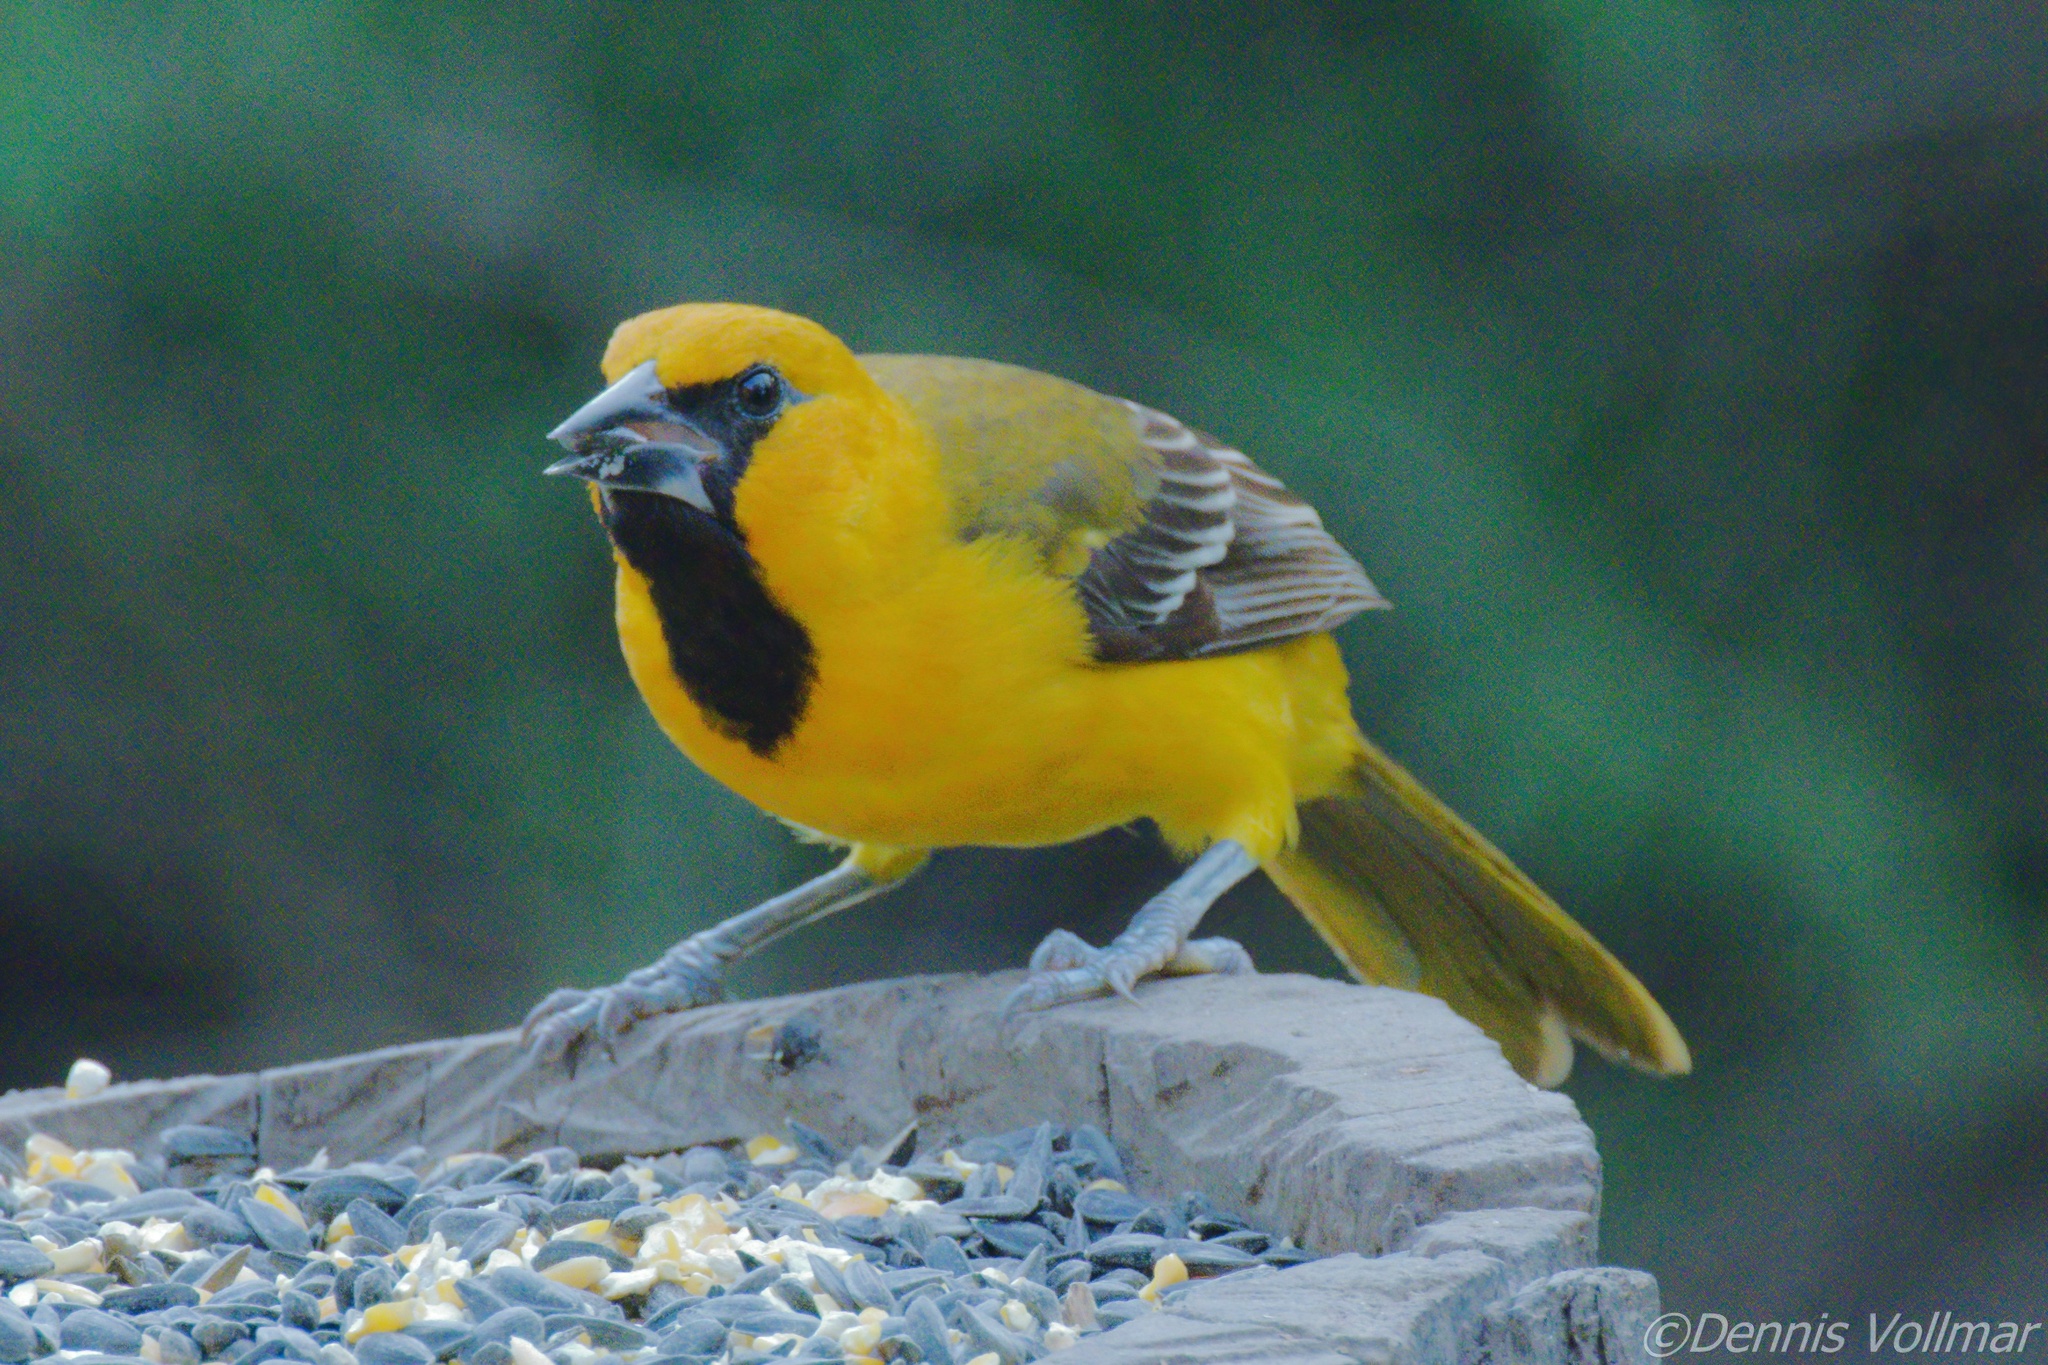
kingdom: Animalia
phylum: Chordata
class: Aves
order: Passeriformes
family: Icteridae
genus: Icterus
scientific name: Icterus gularis
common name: Altamira oriole
